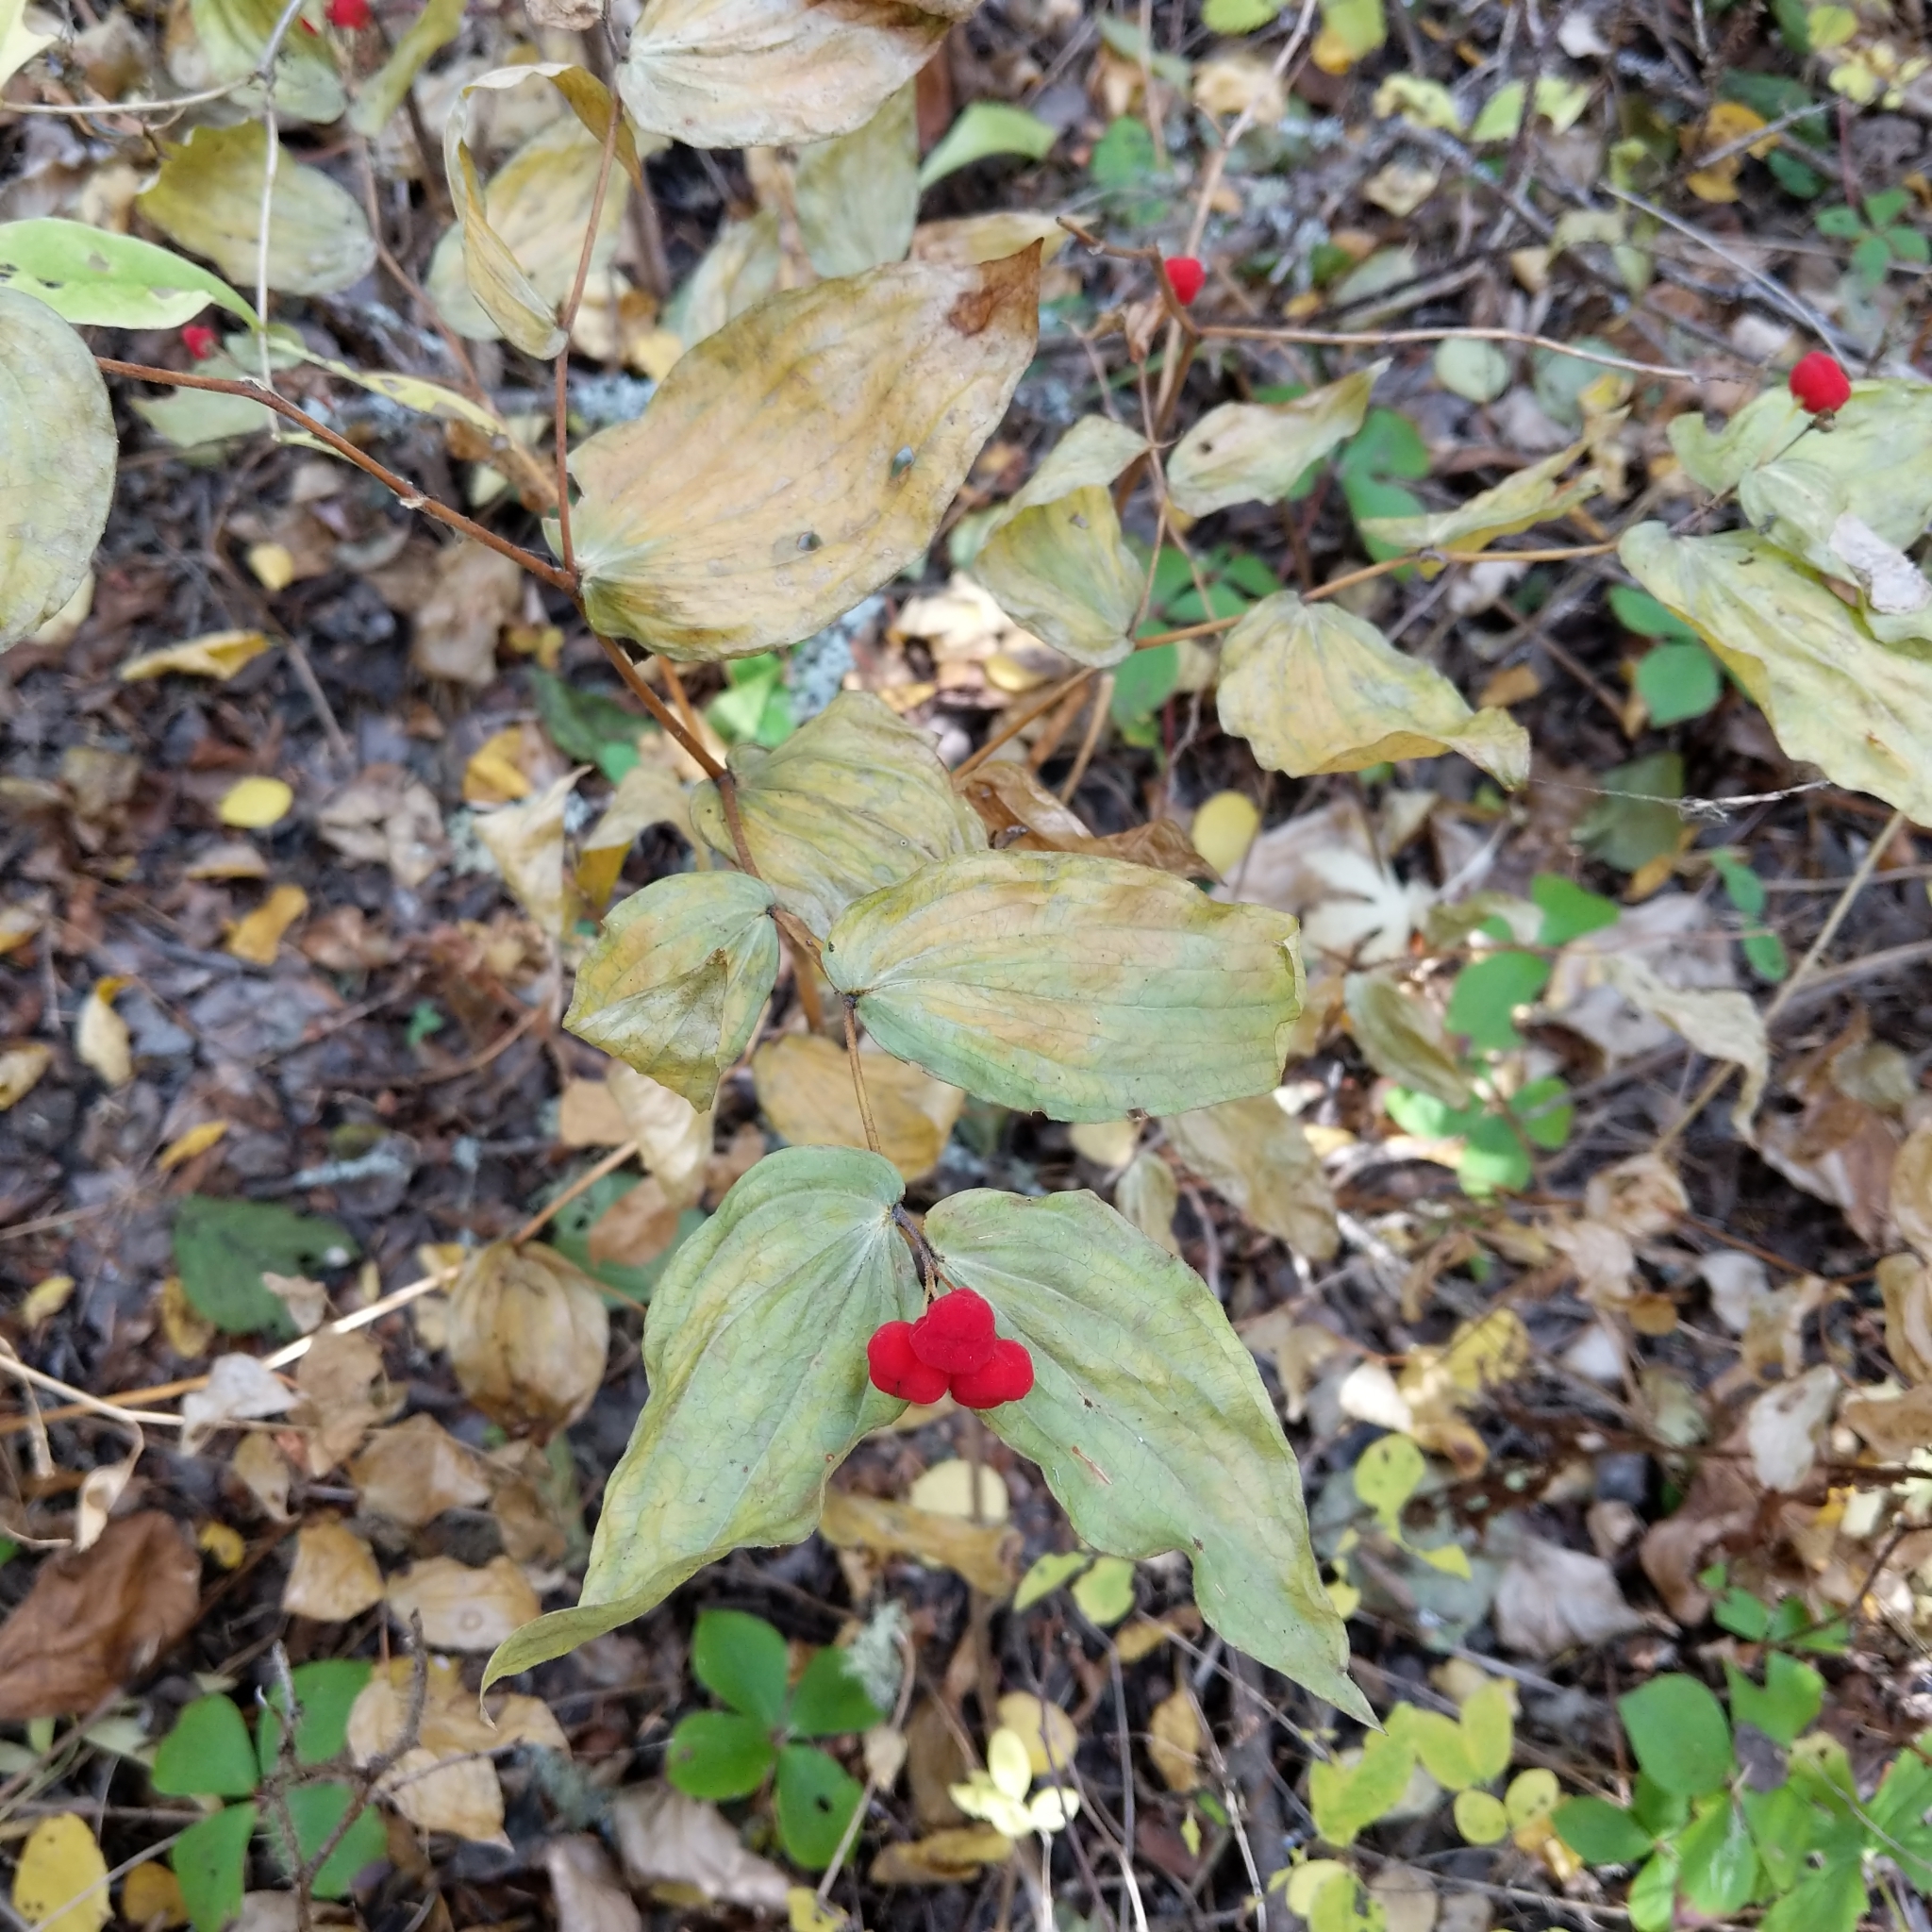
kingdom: Plantae
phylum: Tracheophyta
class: Liliopsida
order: Liliales
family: Liliaceae
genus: Prosartes
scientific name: Prosartes trachycarpa
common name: Rough-fruit fairy-bells
